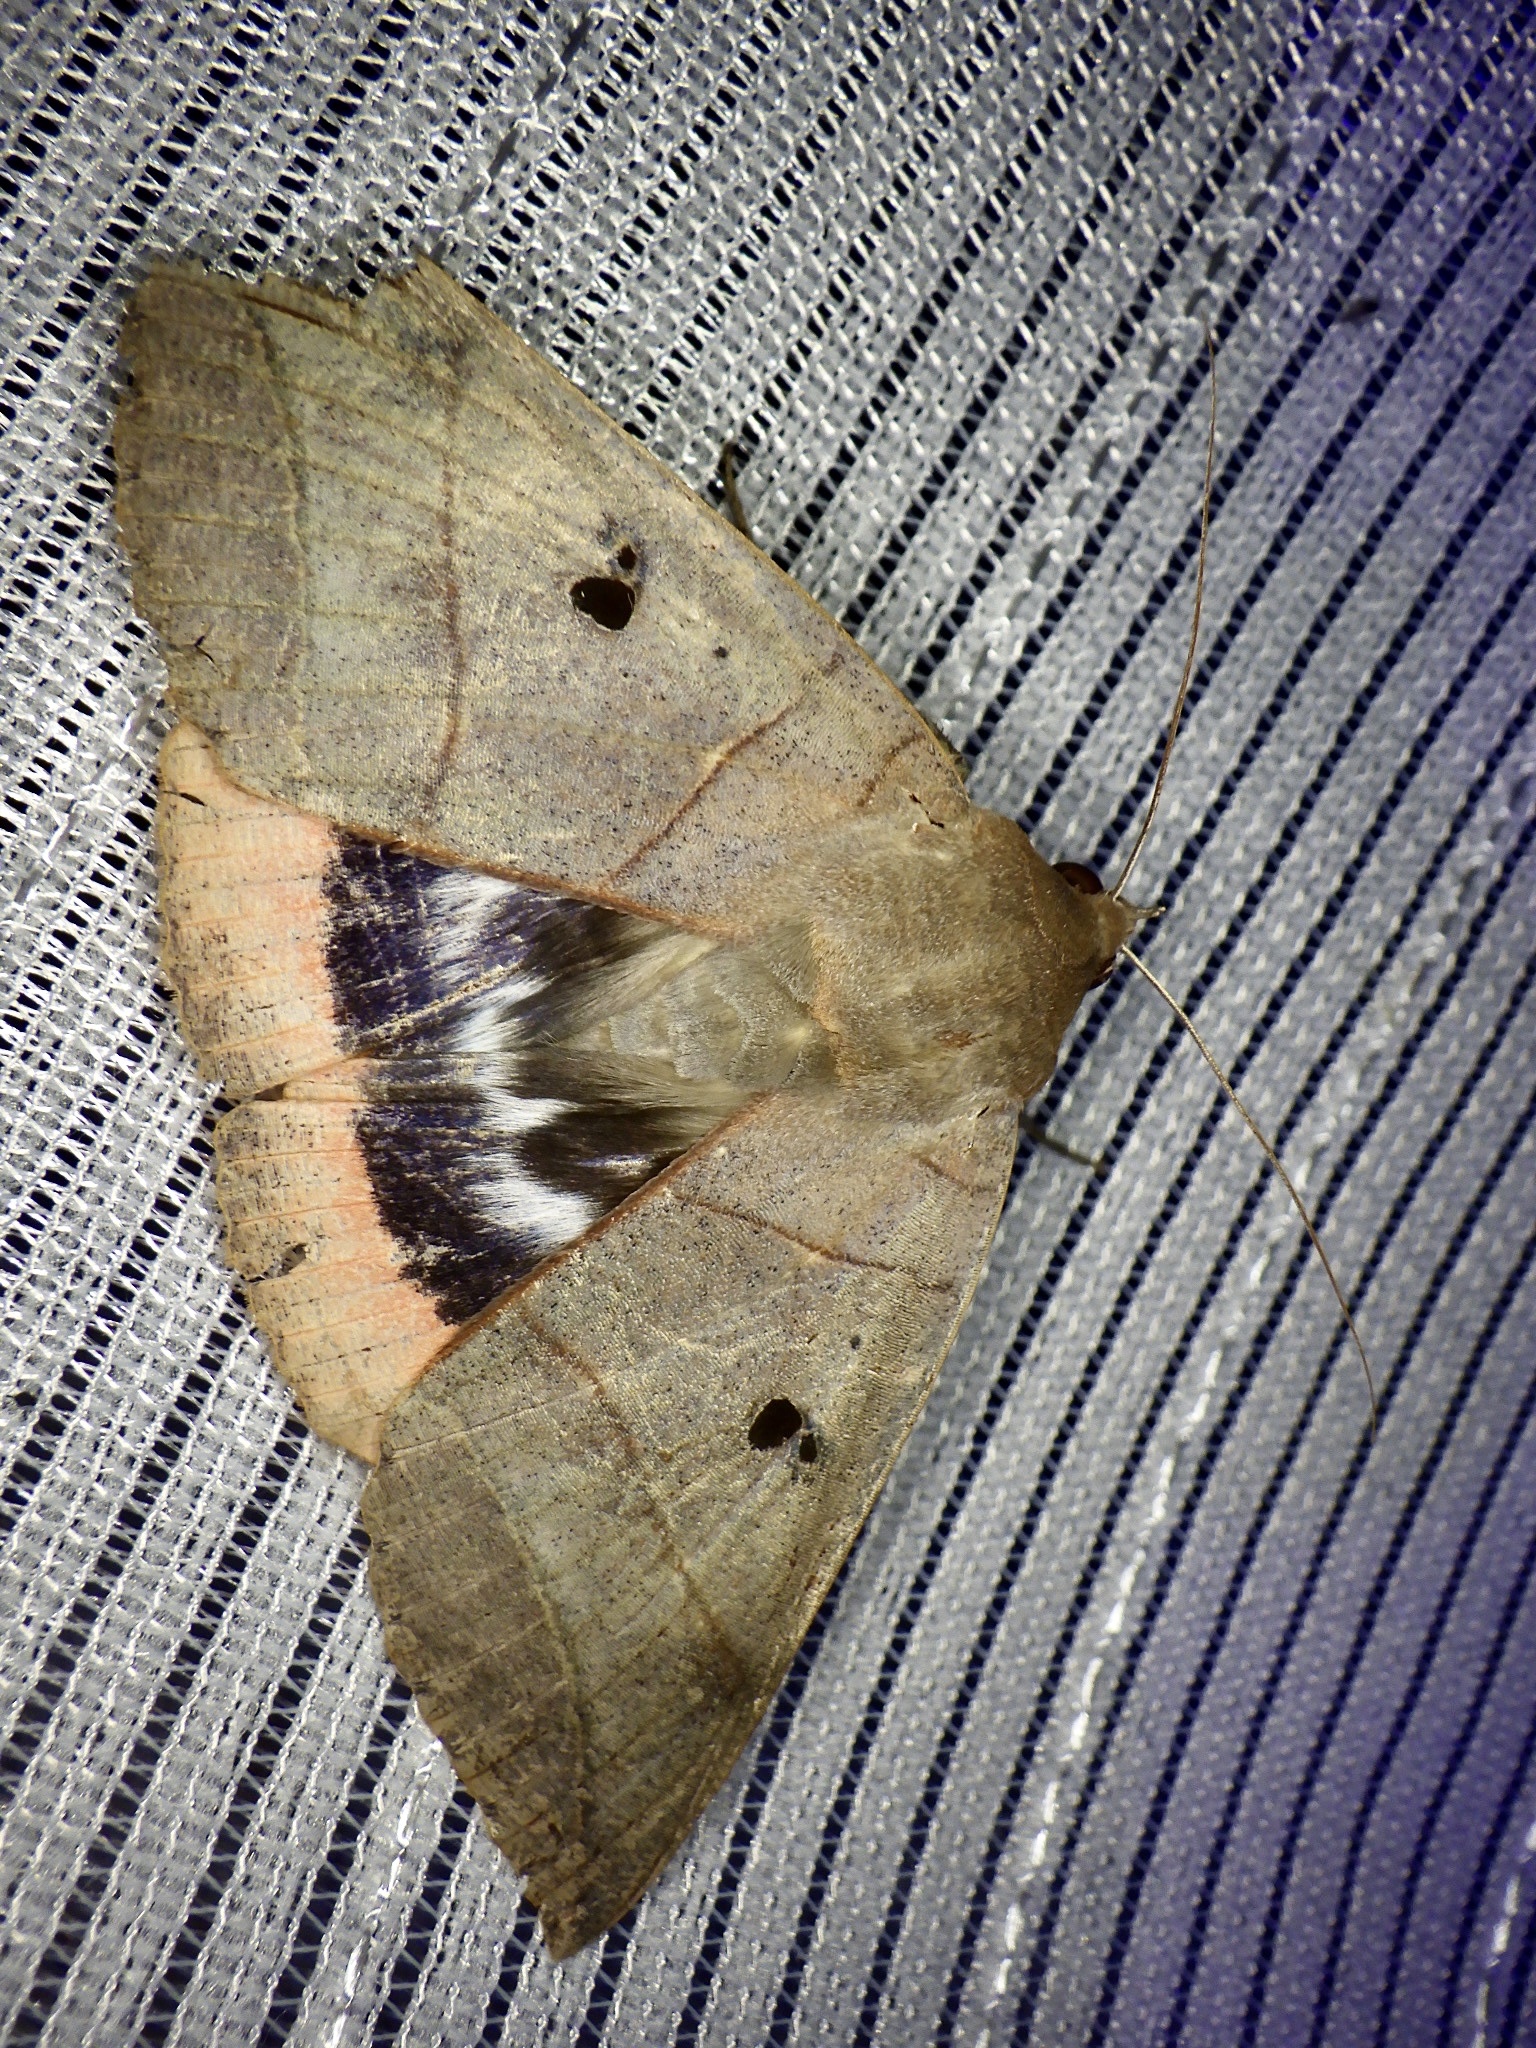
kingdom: Animalia
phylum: Arthropoda
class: Insecta
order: Lepidoptera
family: Erebidae
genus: Thyas
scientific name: Thyas juno
